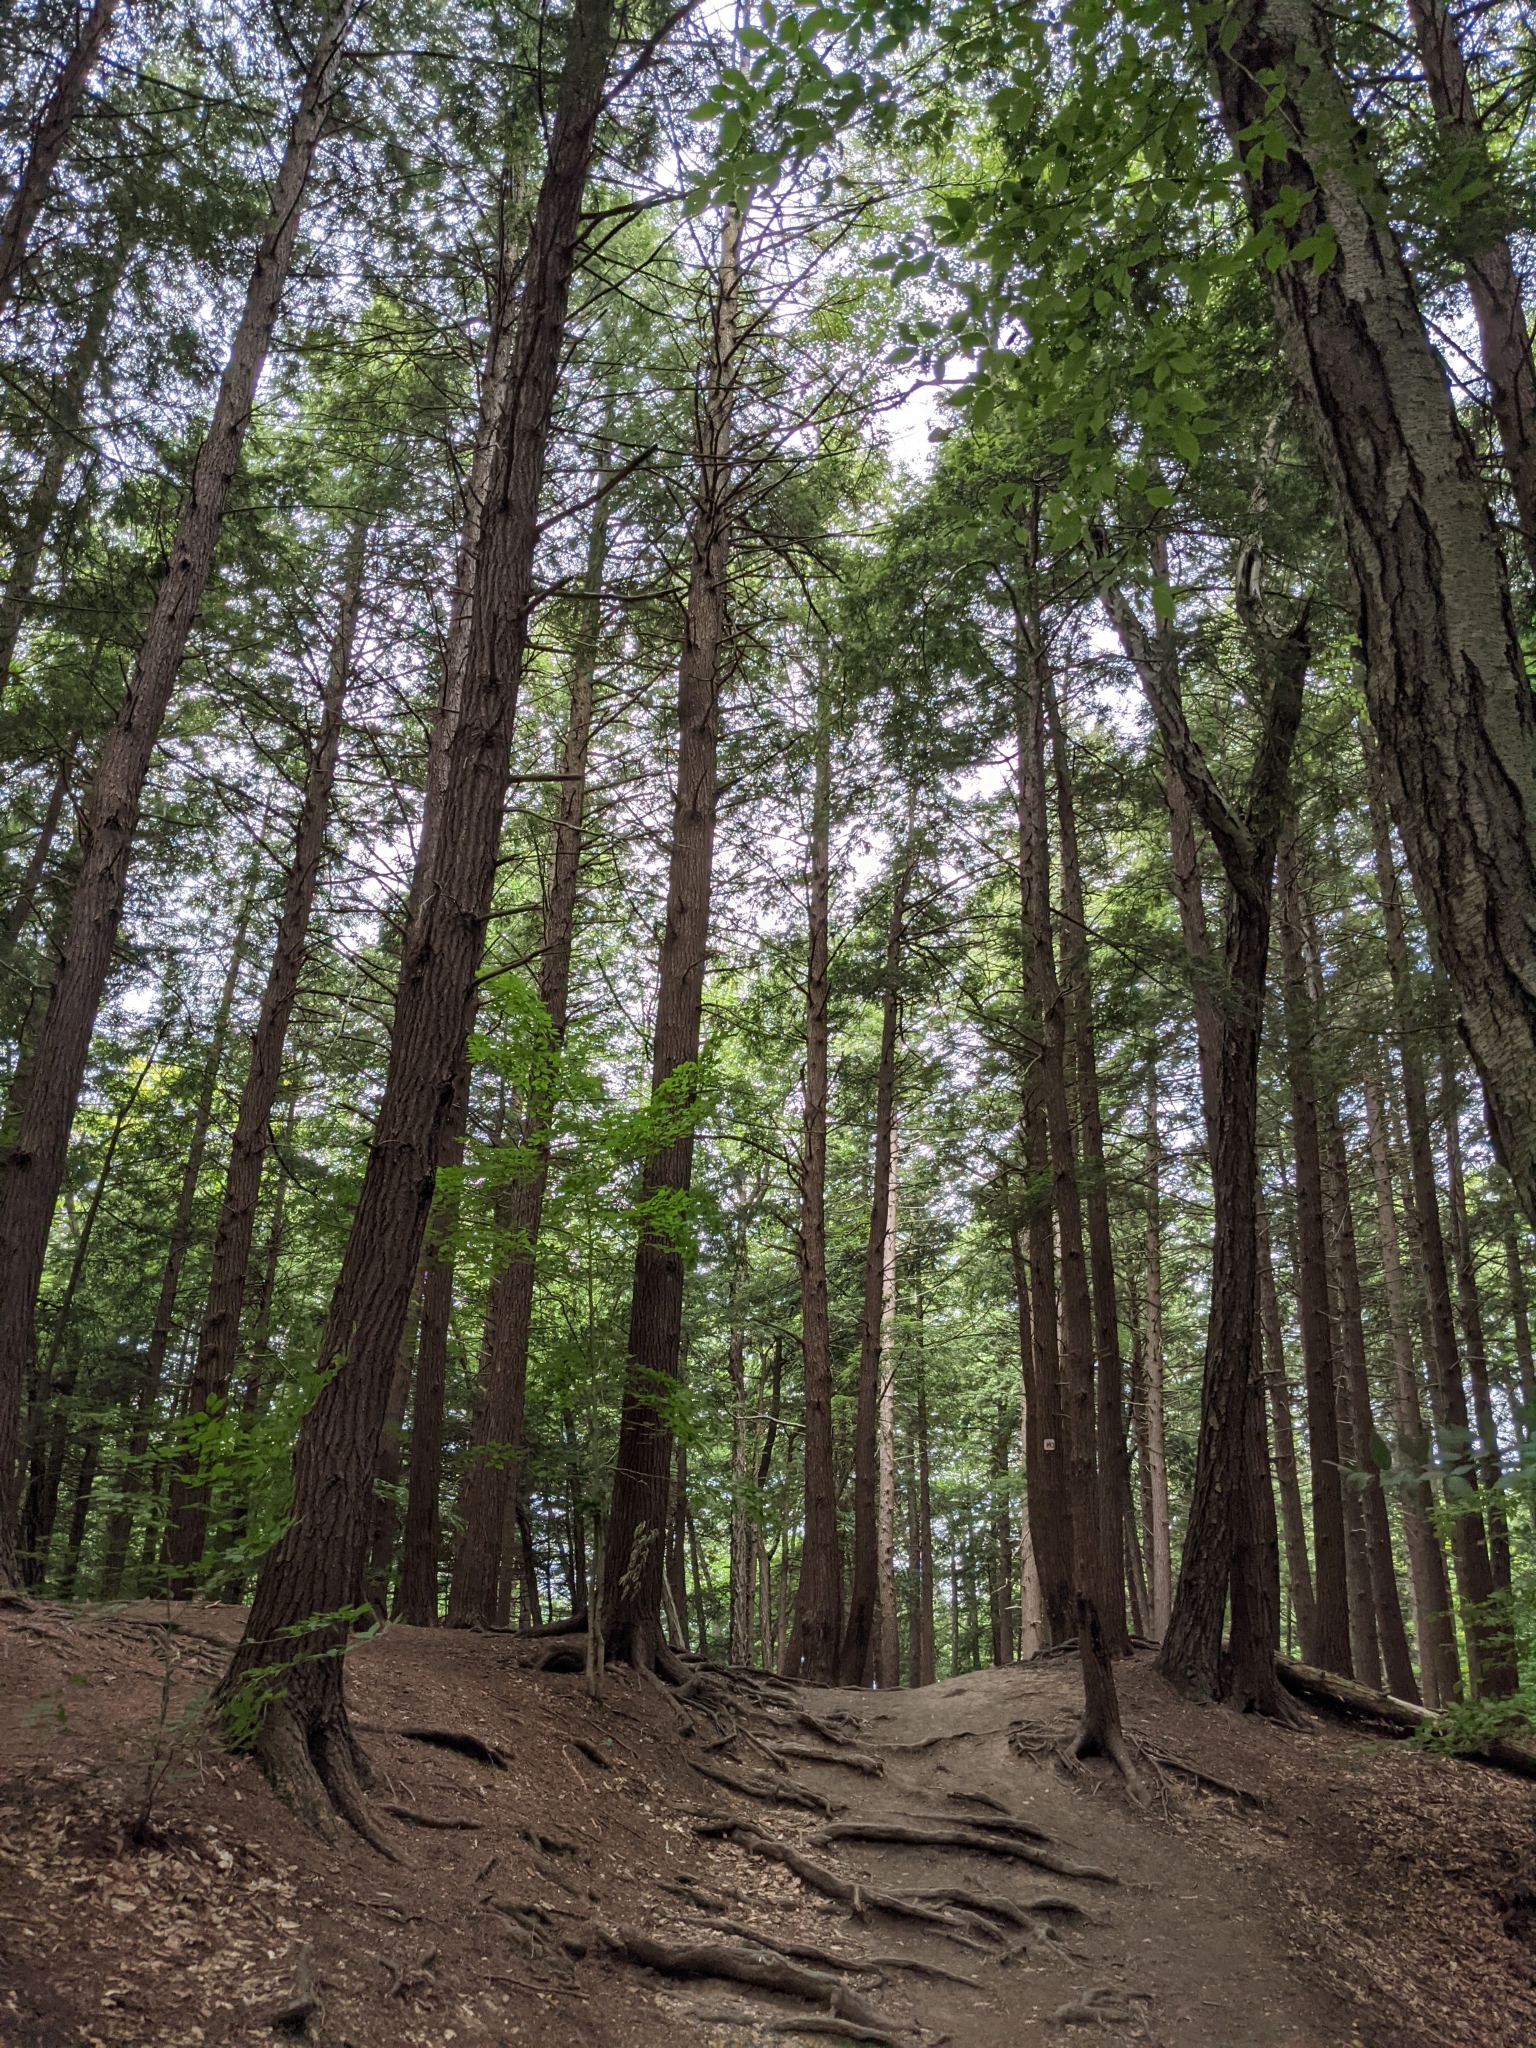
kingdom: Plantae
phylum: Tracheophyta
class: Pinopsida
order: Pinales
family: Pinaceae
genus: Tsuga
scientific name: Tsuga canadensis
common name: Eastern hemlock
